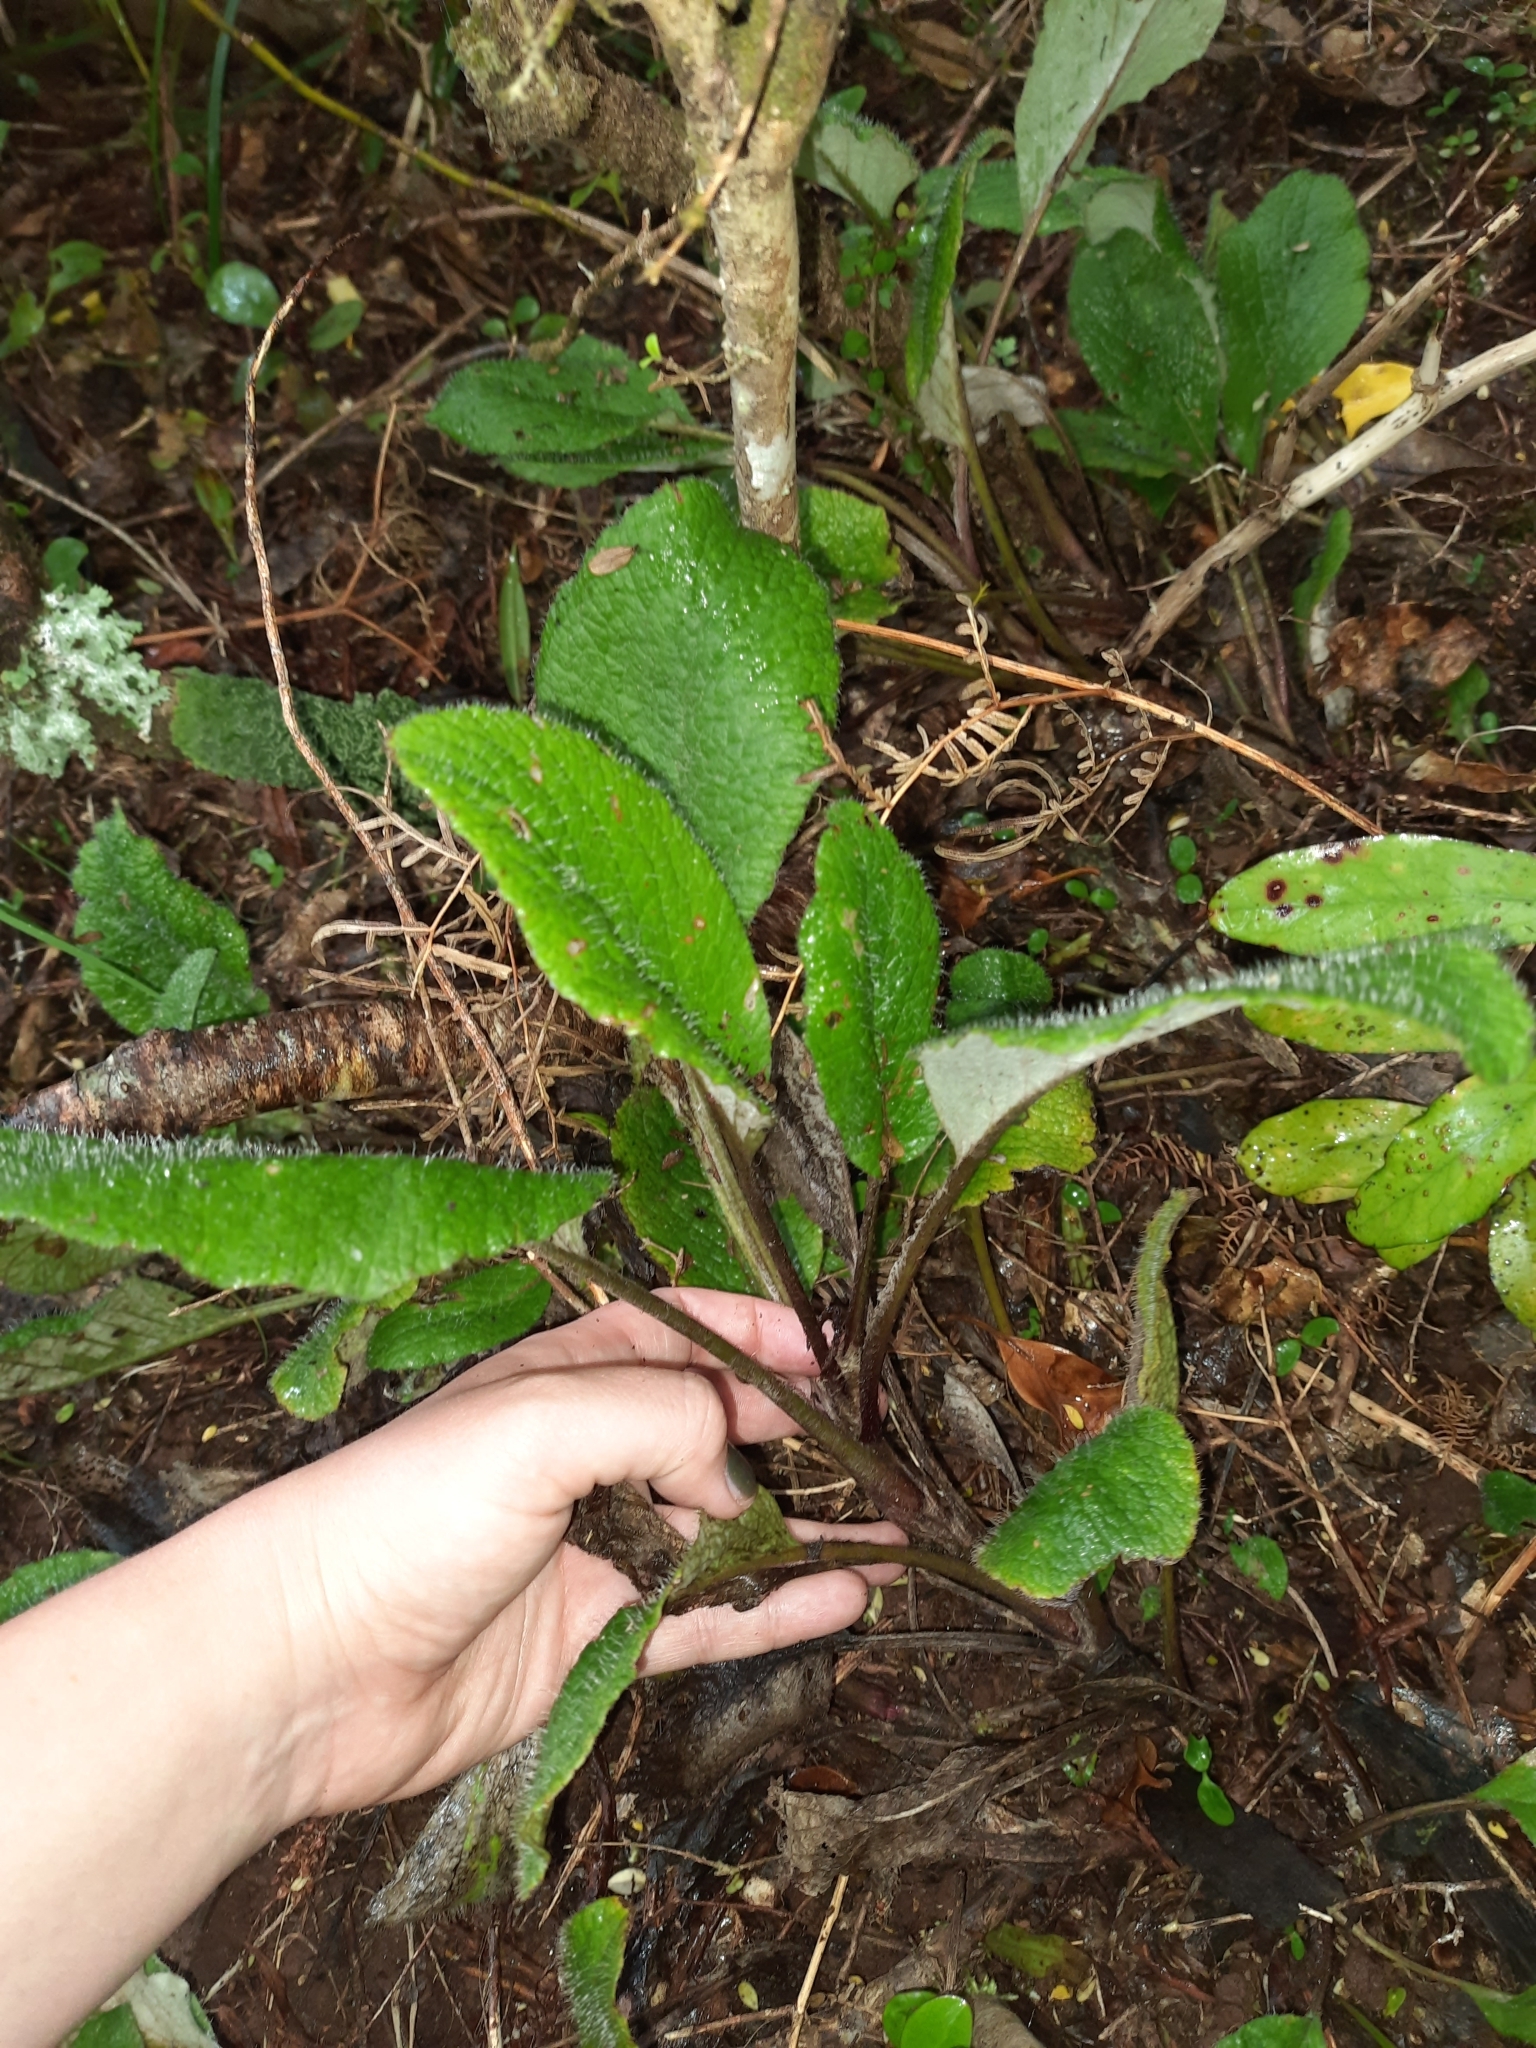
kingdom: Plantae
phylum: Tracheophyta
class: Magnoliopsida
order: Asterales
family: Asteraceae
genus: Brachyglottis
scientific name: Brachyglottis lagopus
